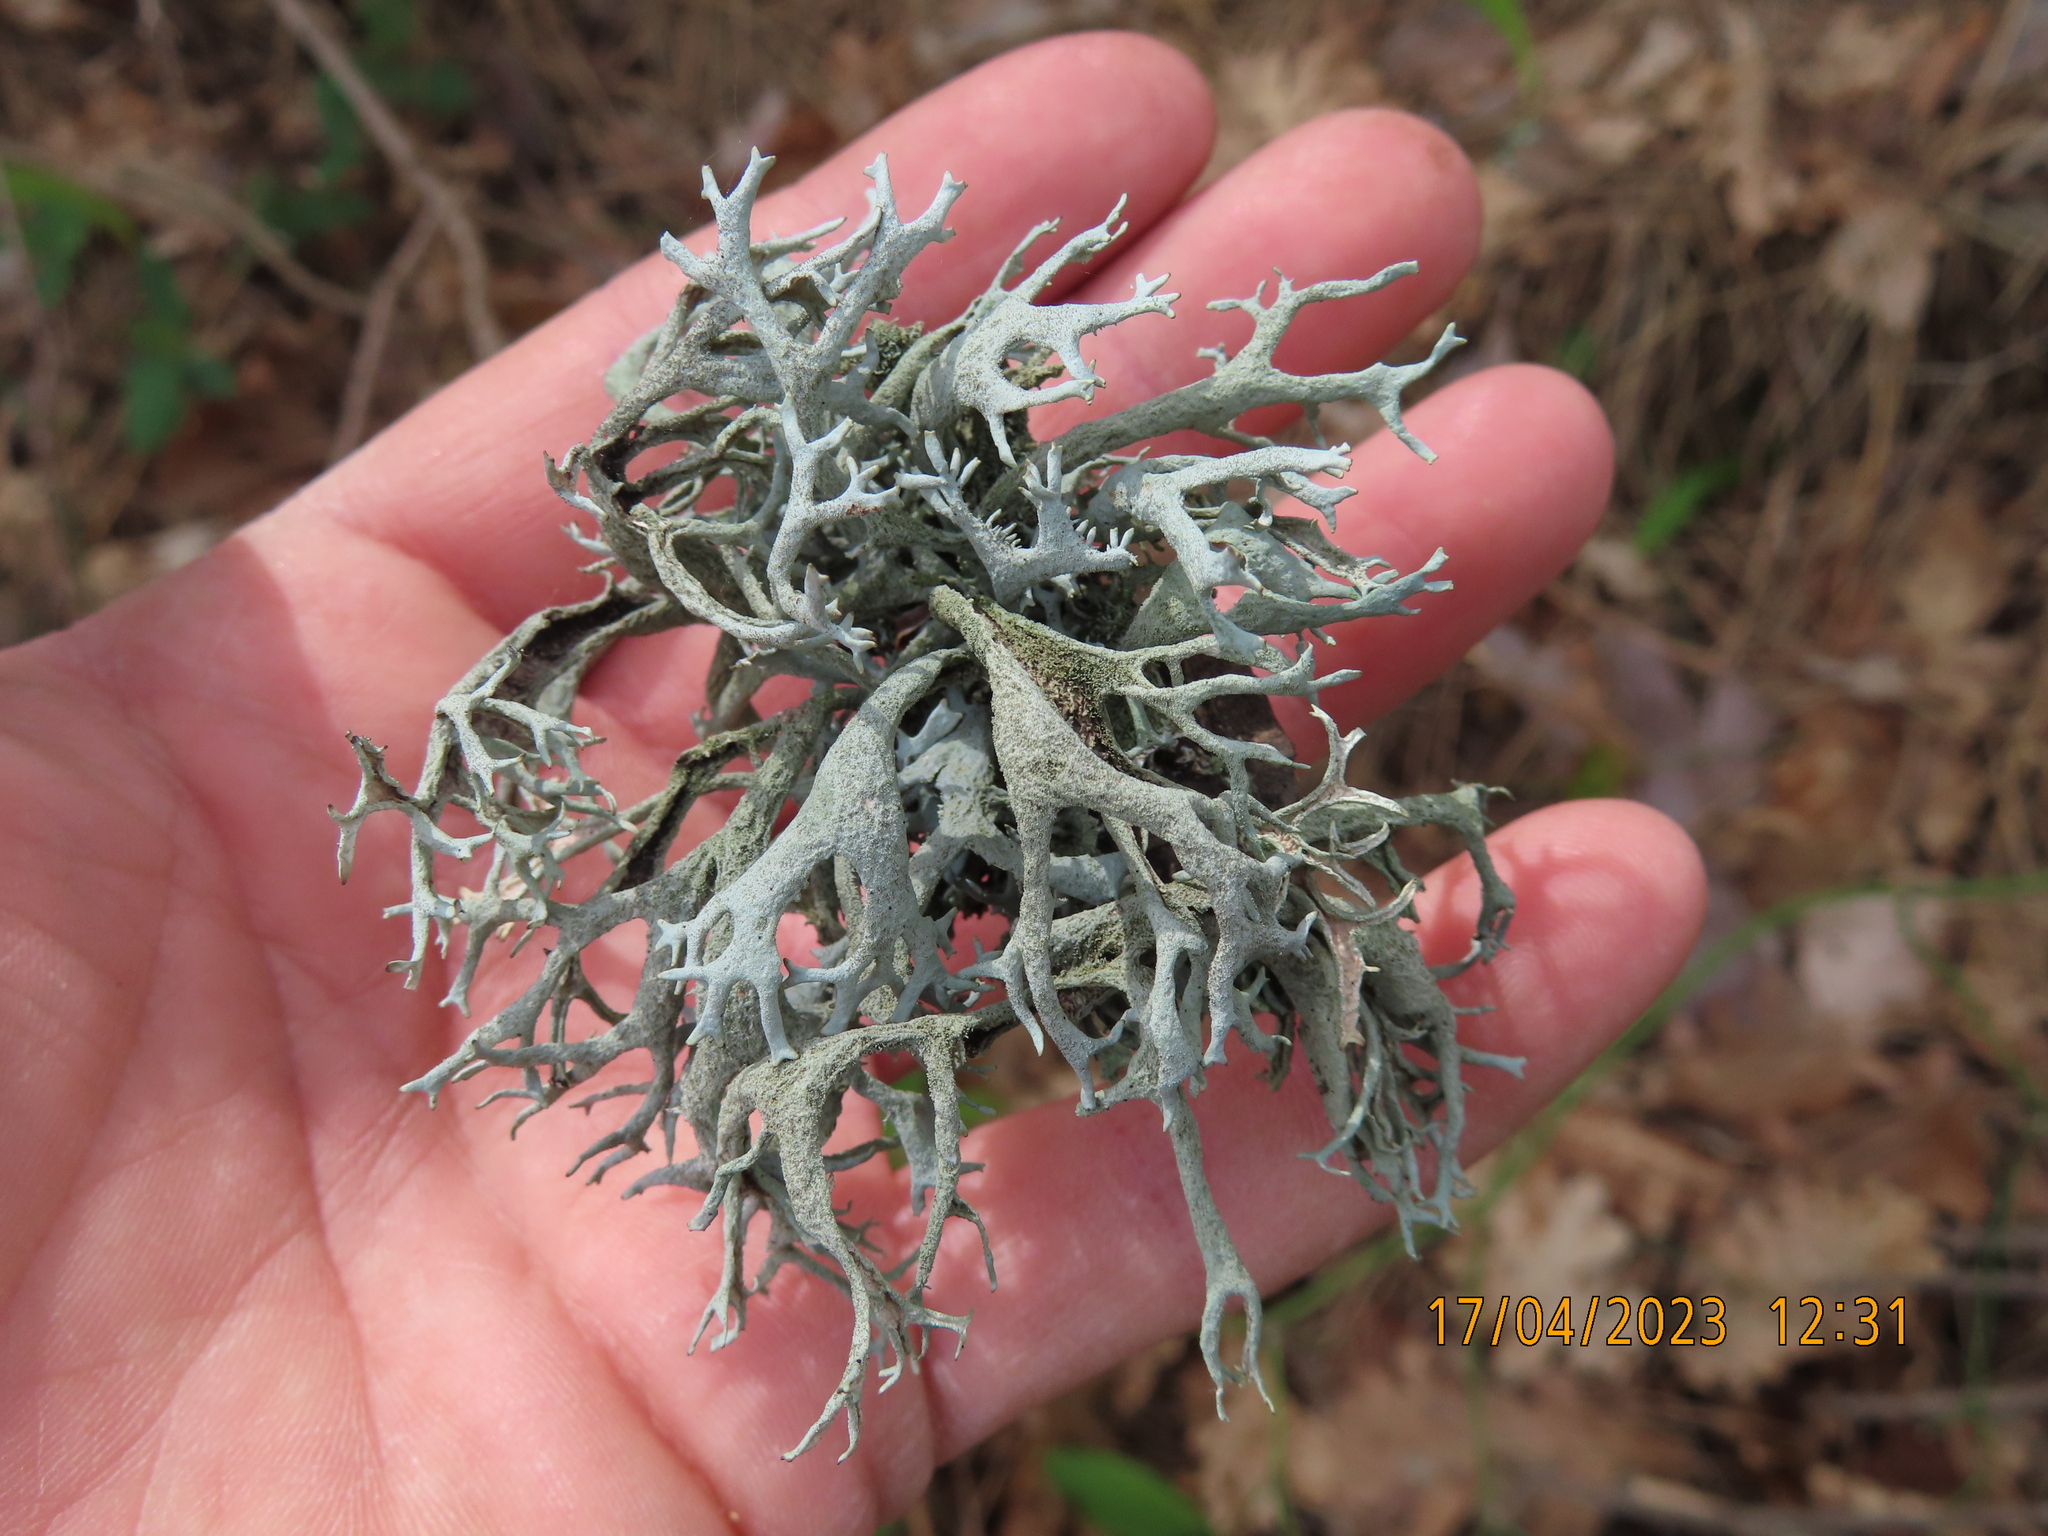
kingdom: Fungi
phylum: Ascomycota
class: Lecanoromycetes
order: Lecanorales
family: Parmeliaceae
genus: Pseudevernia
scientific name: Pseudevernia furfuracea
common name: Tree moss
